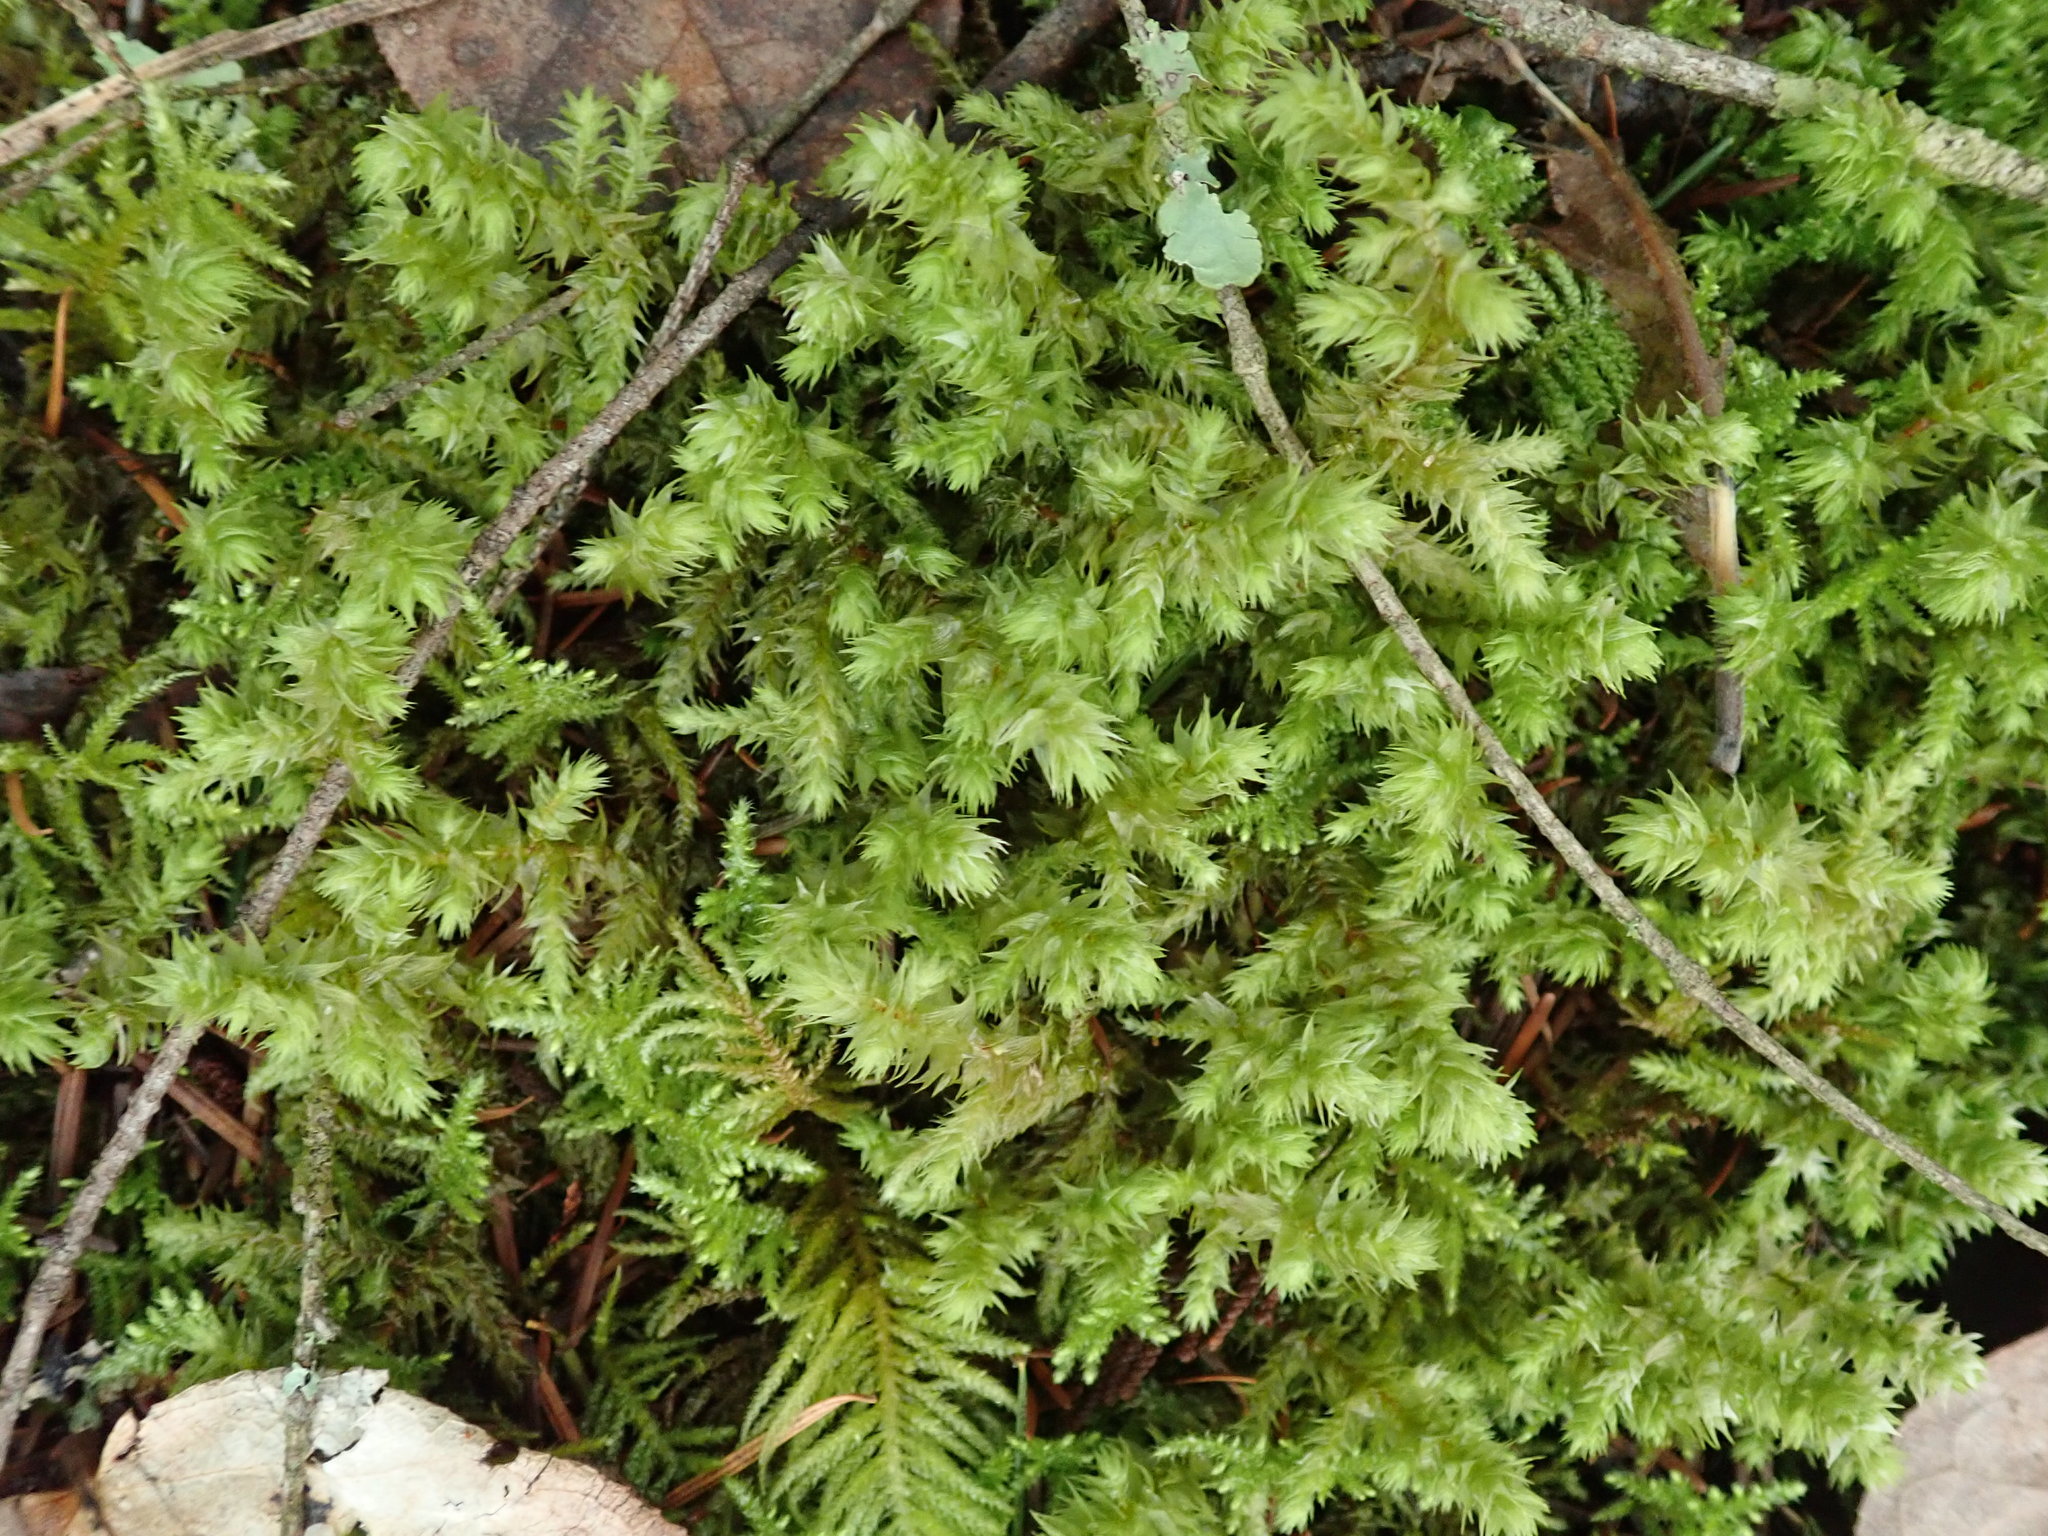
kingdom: Plantae
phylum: Bryophyta
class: Bryopsida
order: Hypnales
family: Hylocomiaceae
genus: Hylocomiadelphus
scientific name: Hylocomiadelphus triquetrus
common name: Rough goose neck moss
